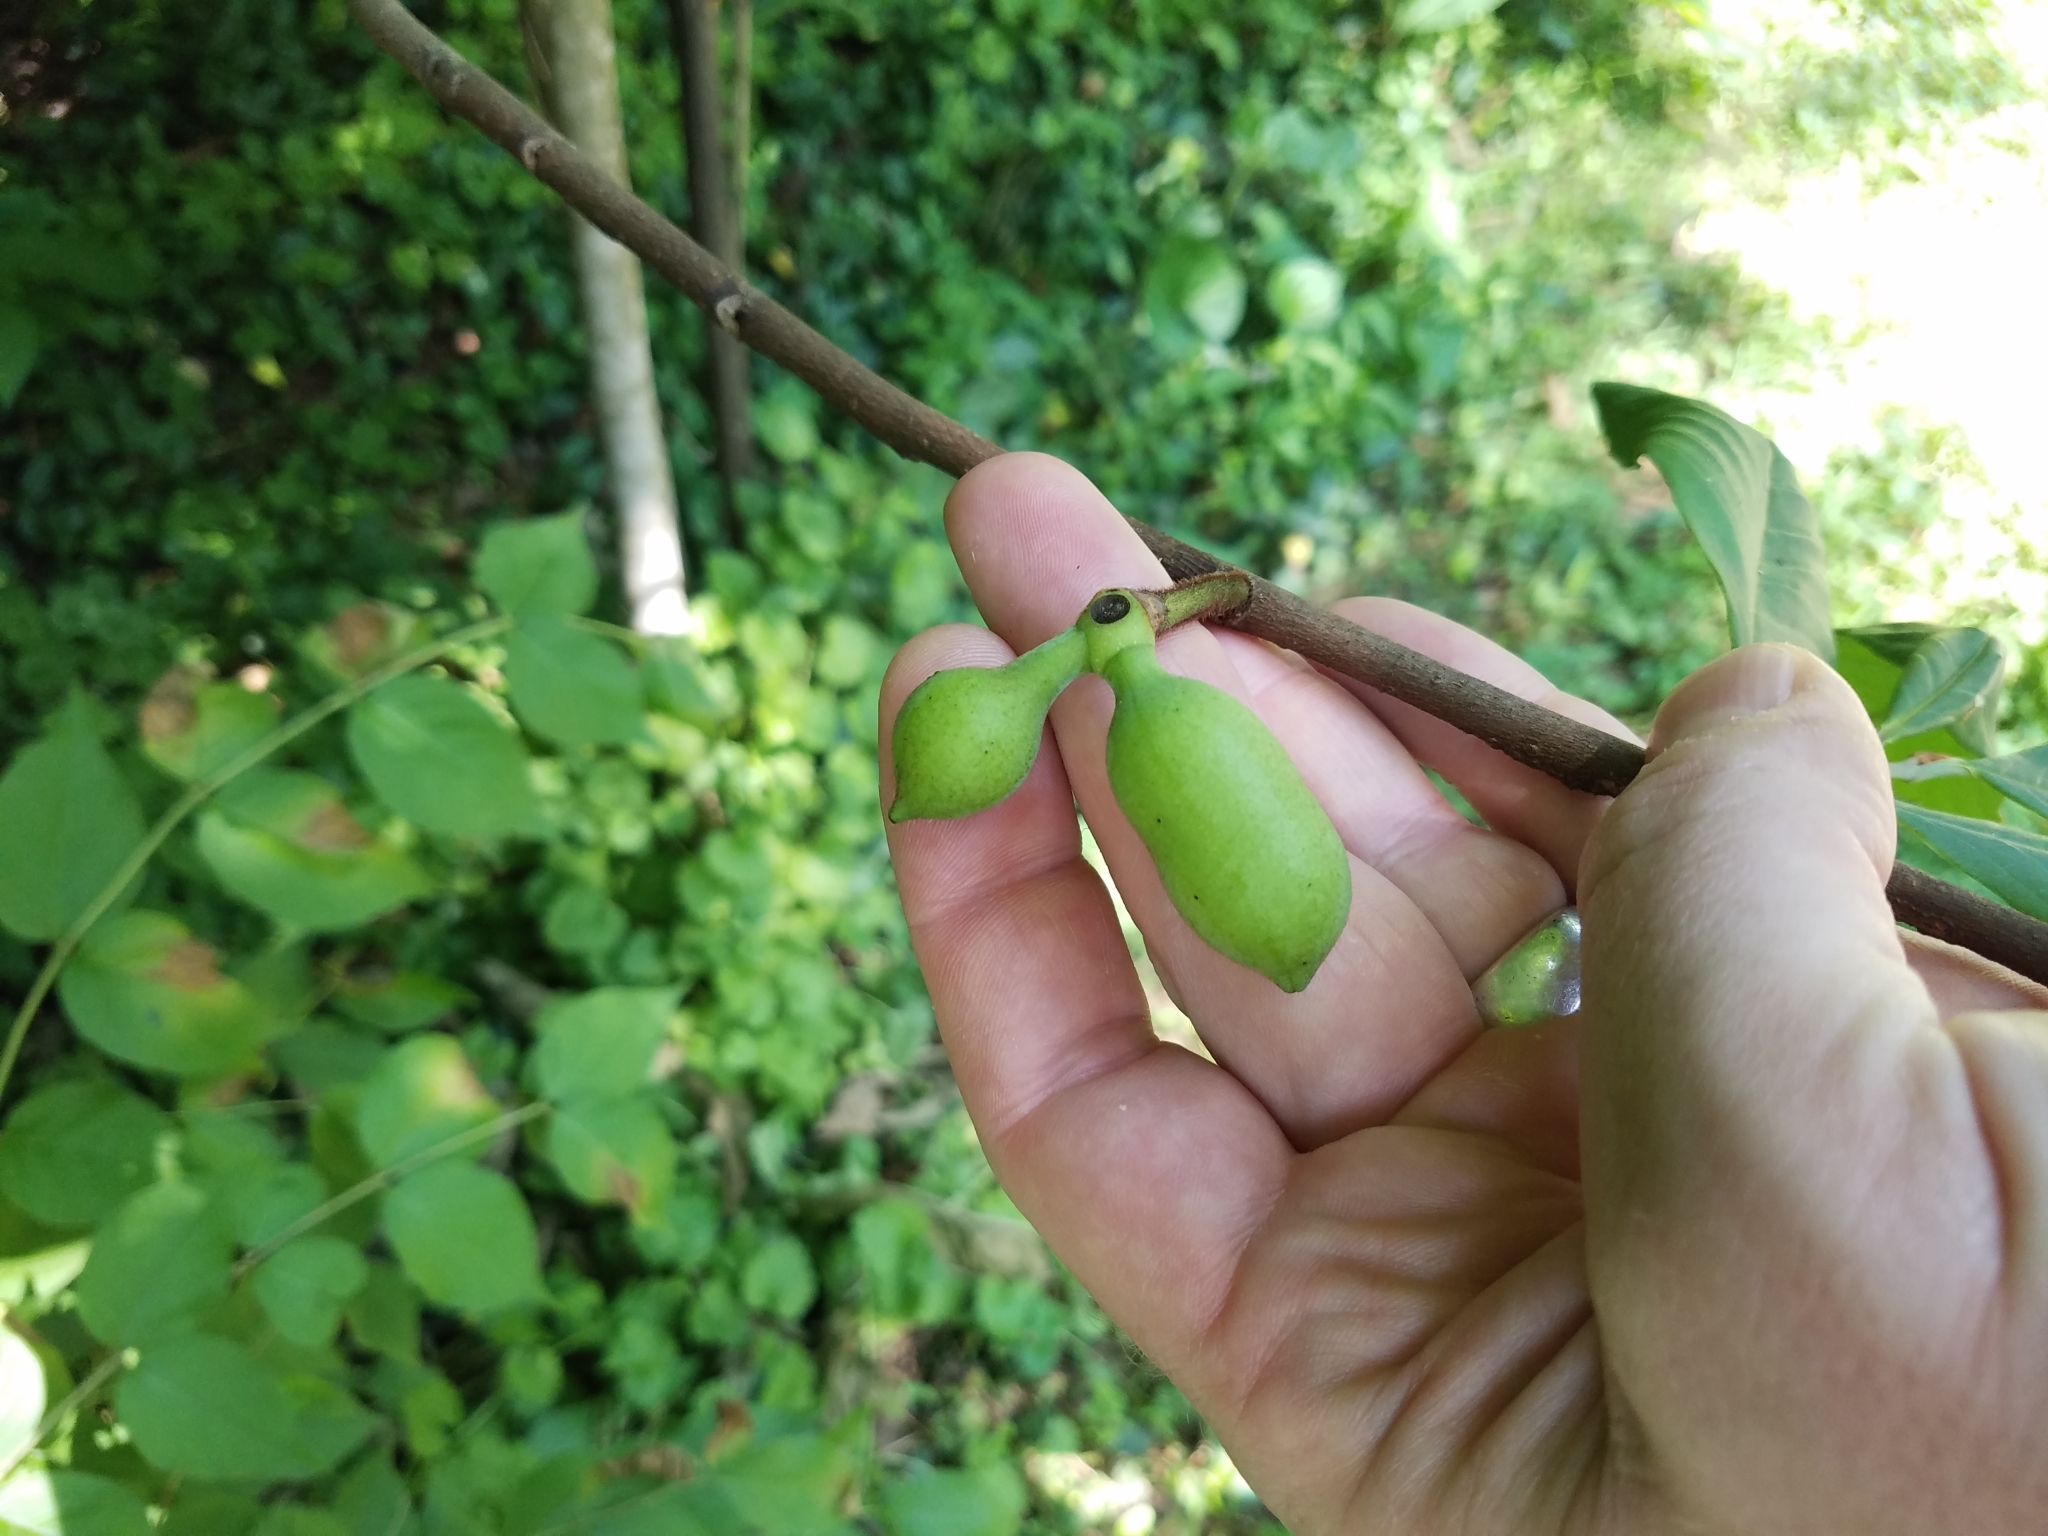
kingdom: Plantae
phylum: Tracheophyta
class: Magnoliopsida
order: Magnoliales
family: Annonaceae
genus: Asimina
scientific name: Asimina triloba
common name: Dog-banana
